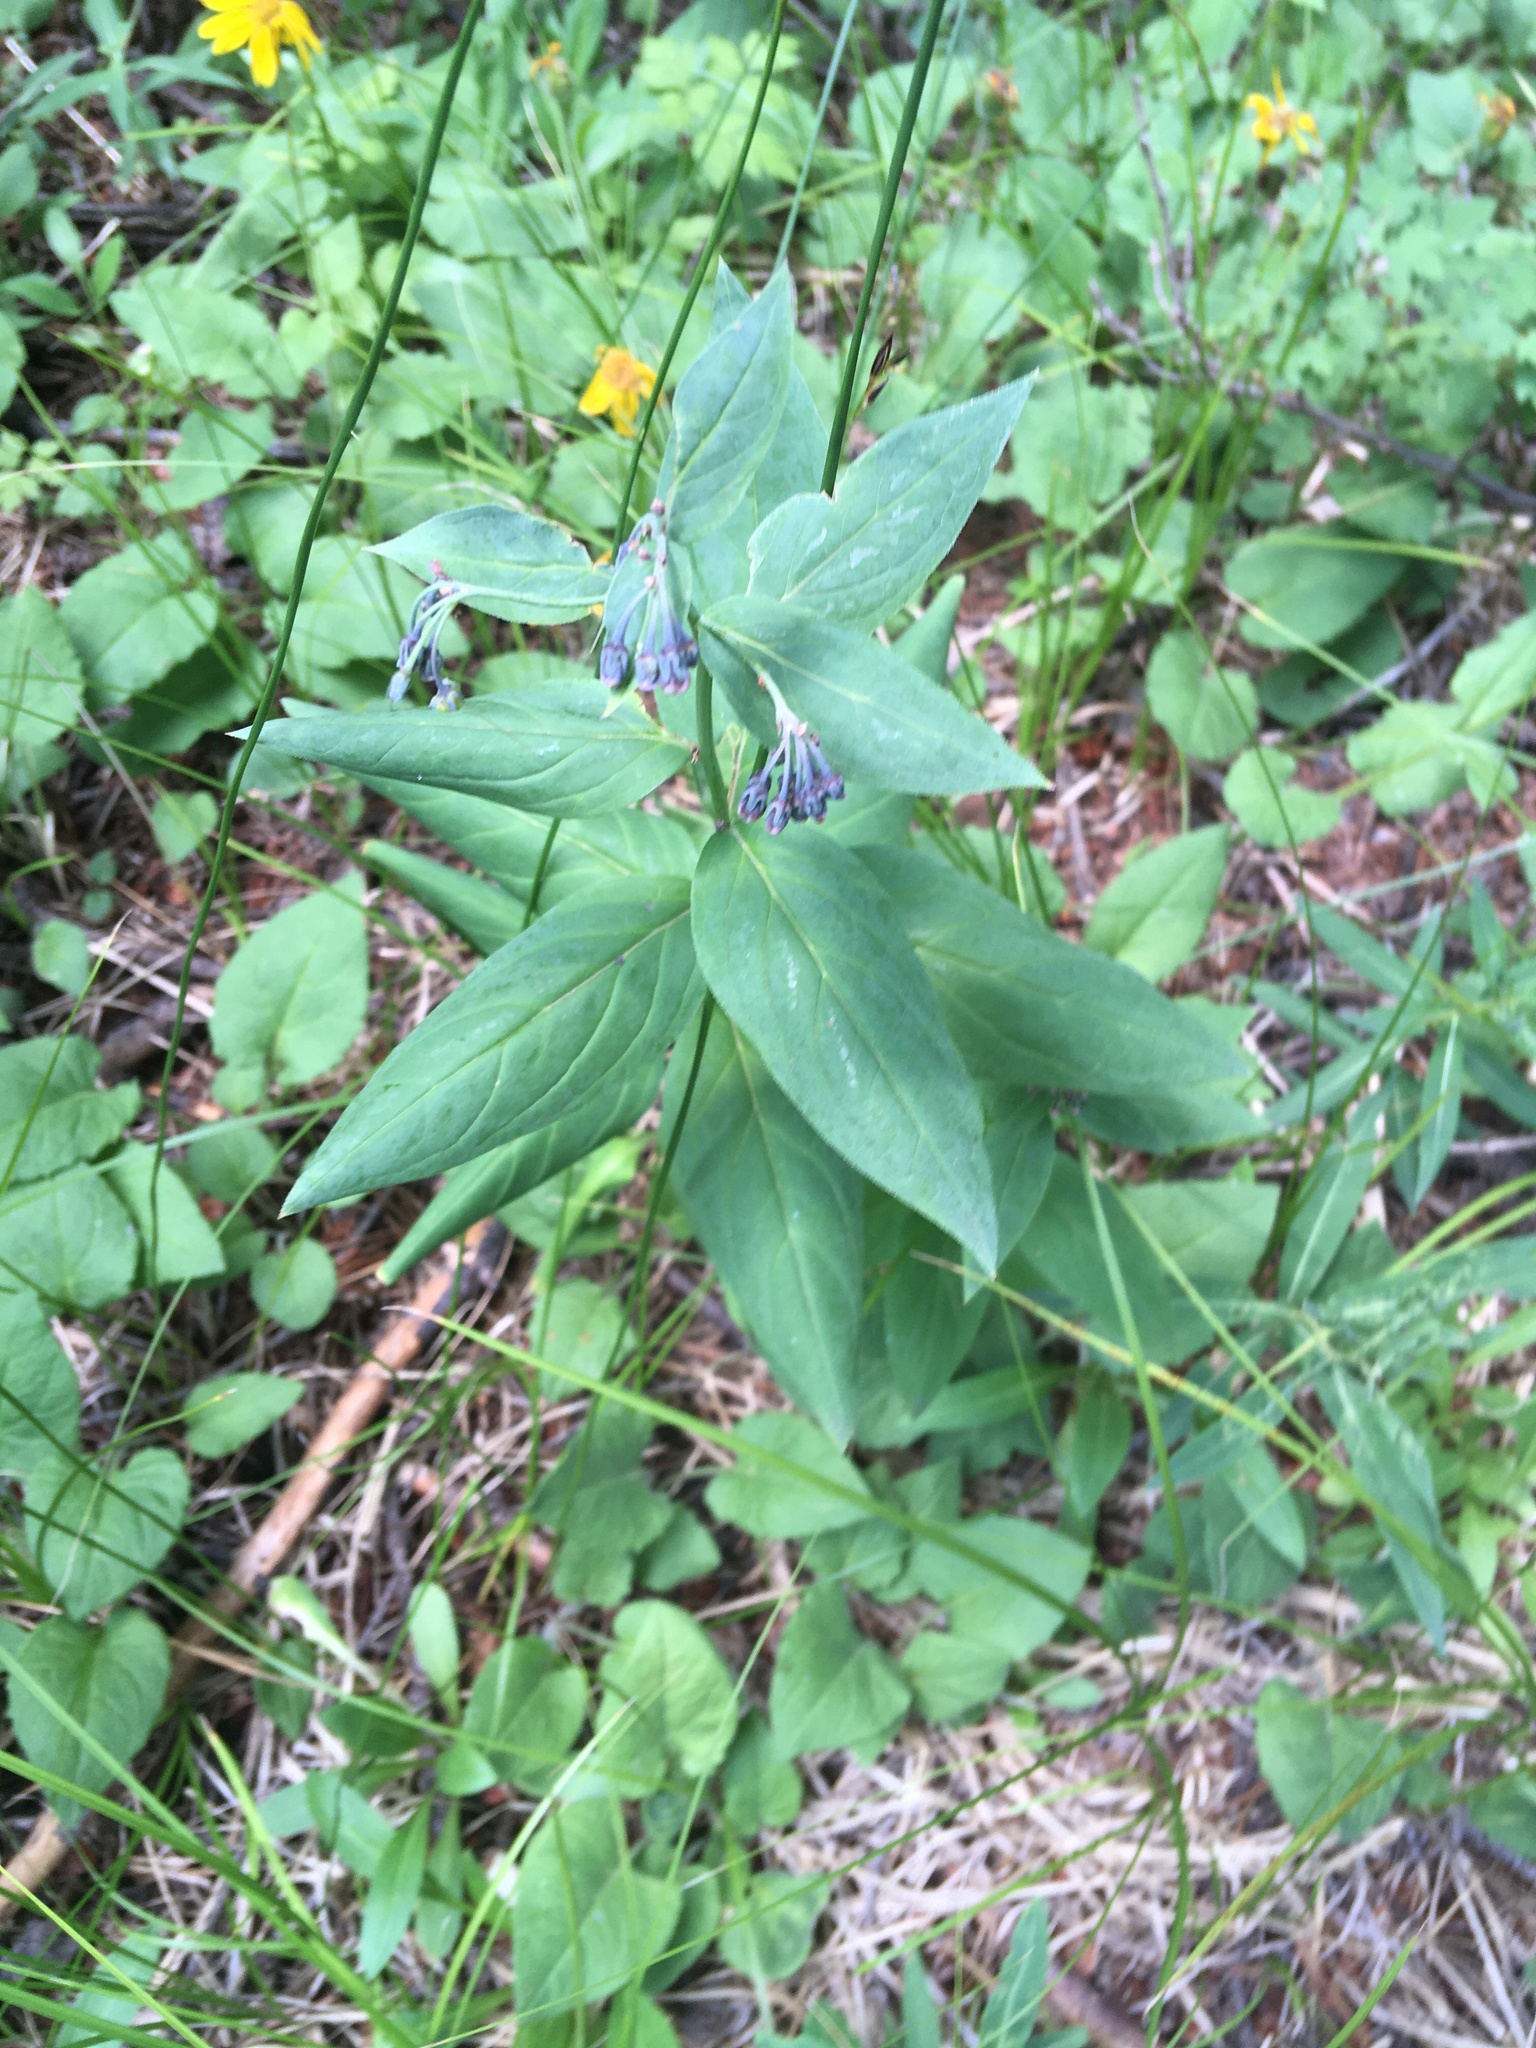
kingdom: Plantae
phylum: Tracheophyta
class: Magnoliopsida
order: Boraginales
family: Boraginaceae
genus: Mertensia
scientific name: Mertensia ciliata
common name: Tall chiming-bells
